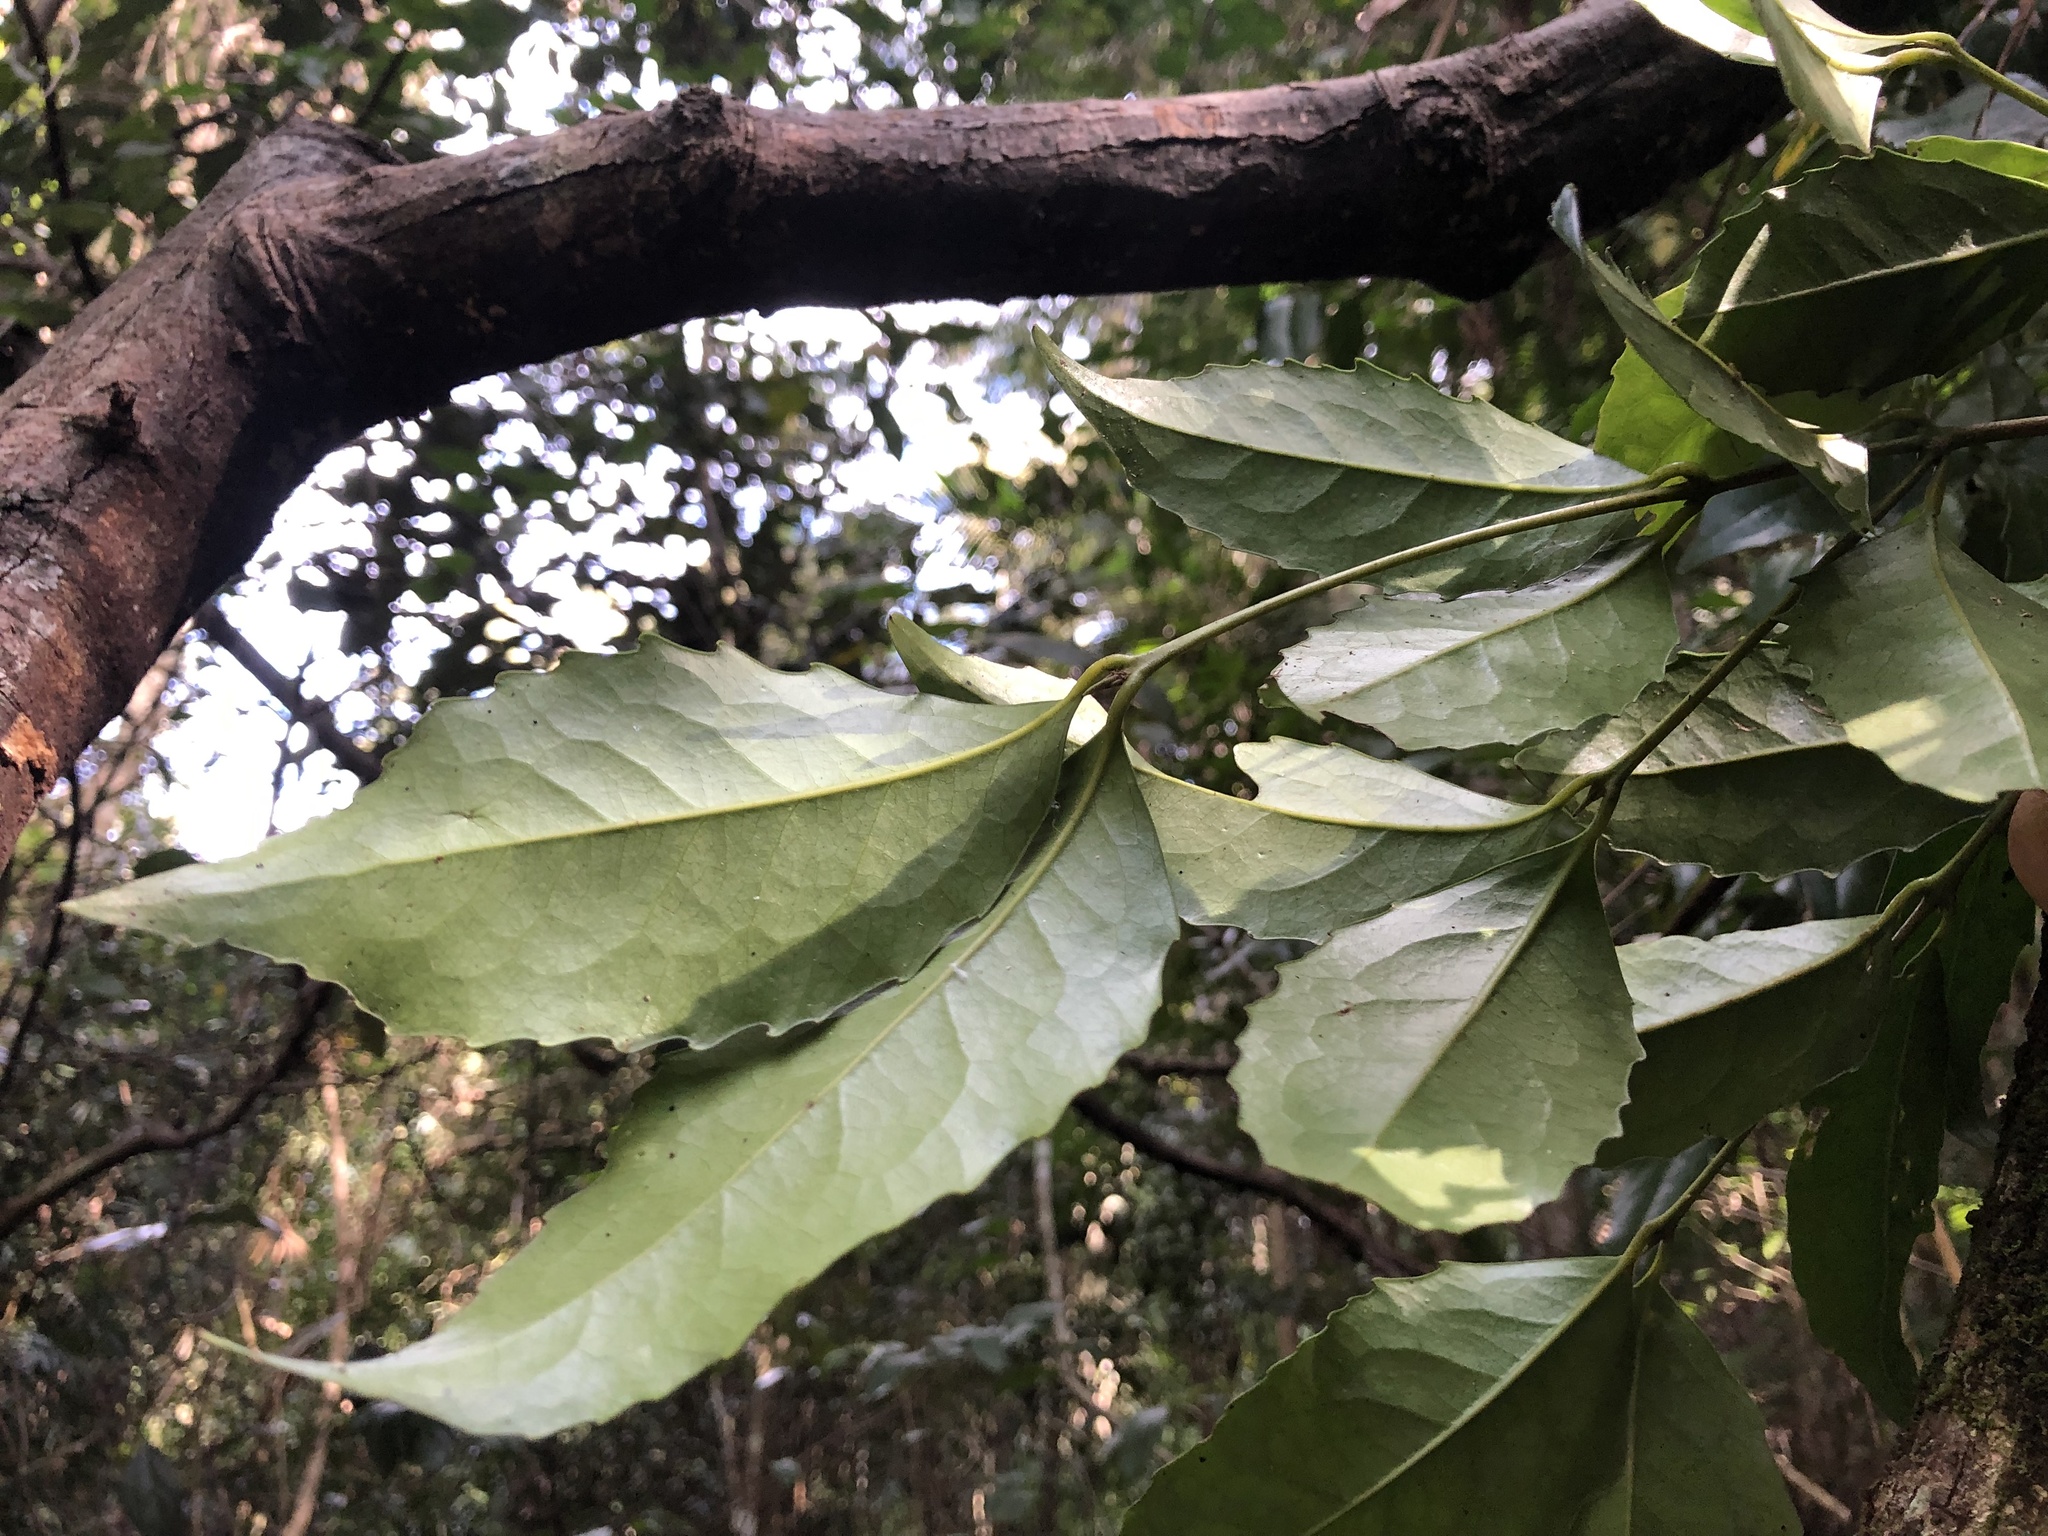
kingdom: Plantae
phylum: Tracheophyta
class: Magnoliopsida
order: Laurales
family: Atherospermataceae
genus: Doryphora
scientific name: Doryphora sassafras
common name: Golden-sassafras
